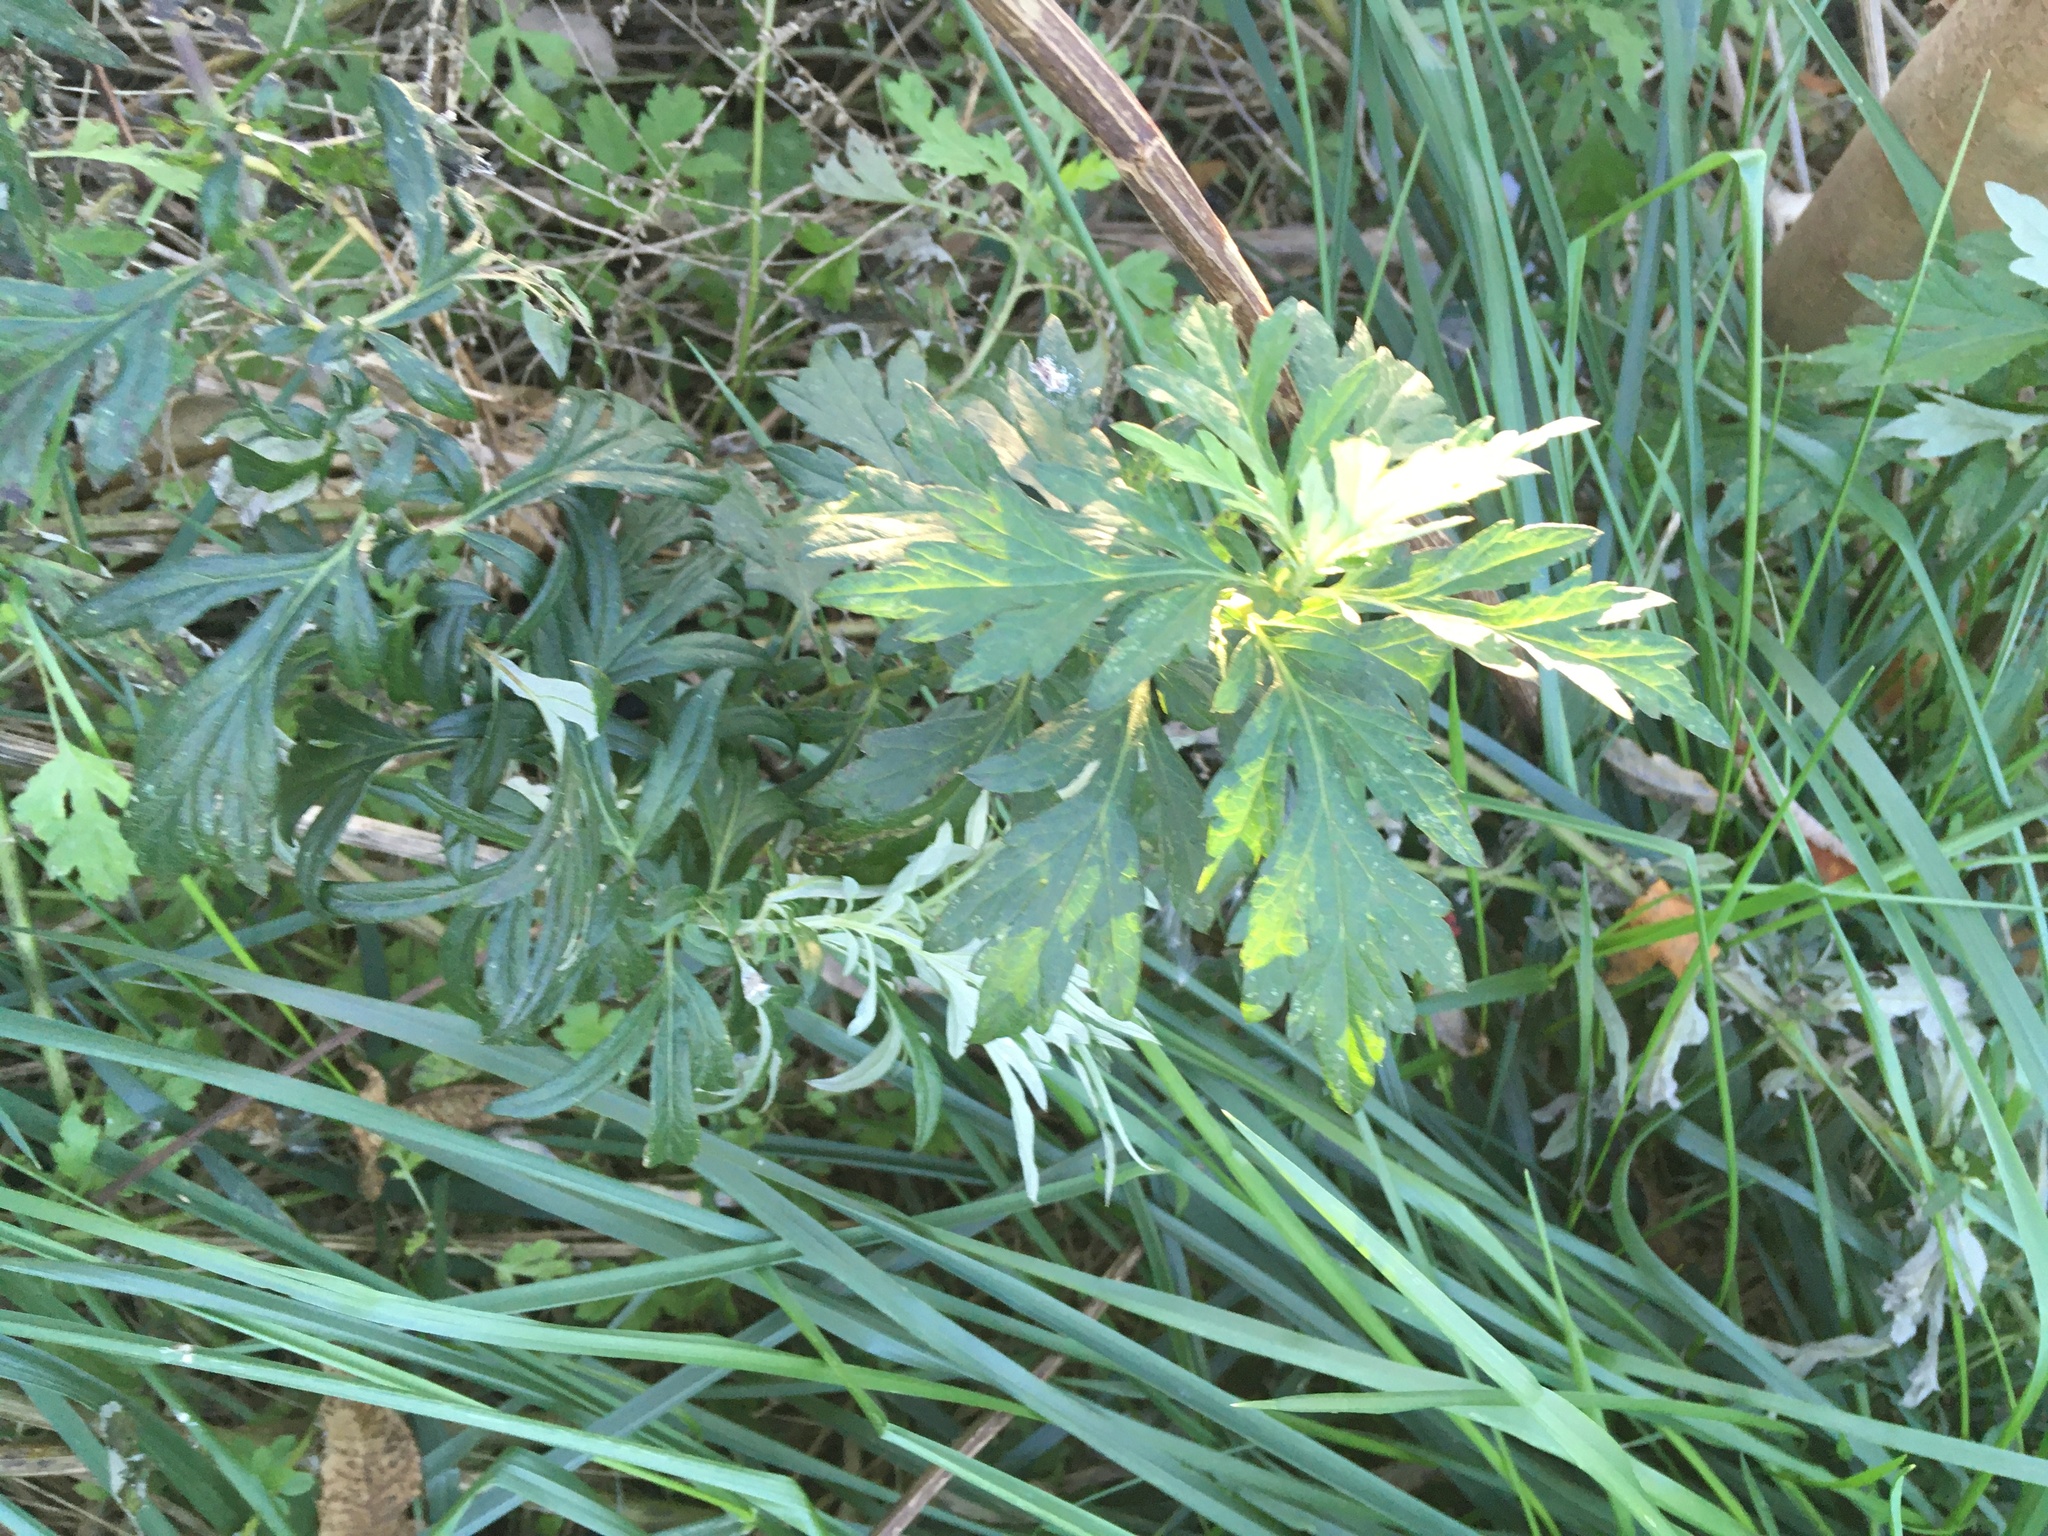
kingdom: Plantae
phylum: Tracheophyta
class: Magnoliopsida
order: Asterales
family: Asteraceae
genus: Artemisia
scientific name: Artemisia vulgaris
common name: Mugwort
